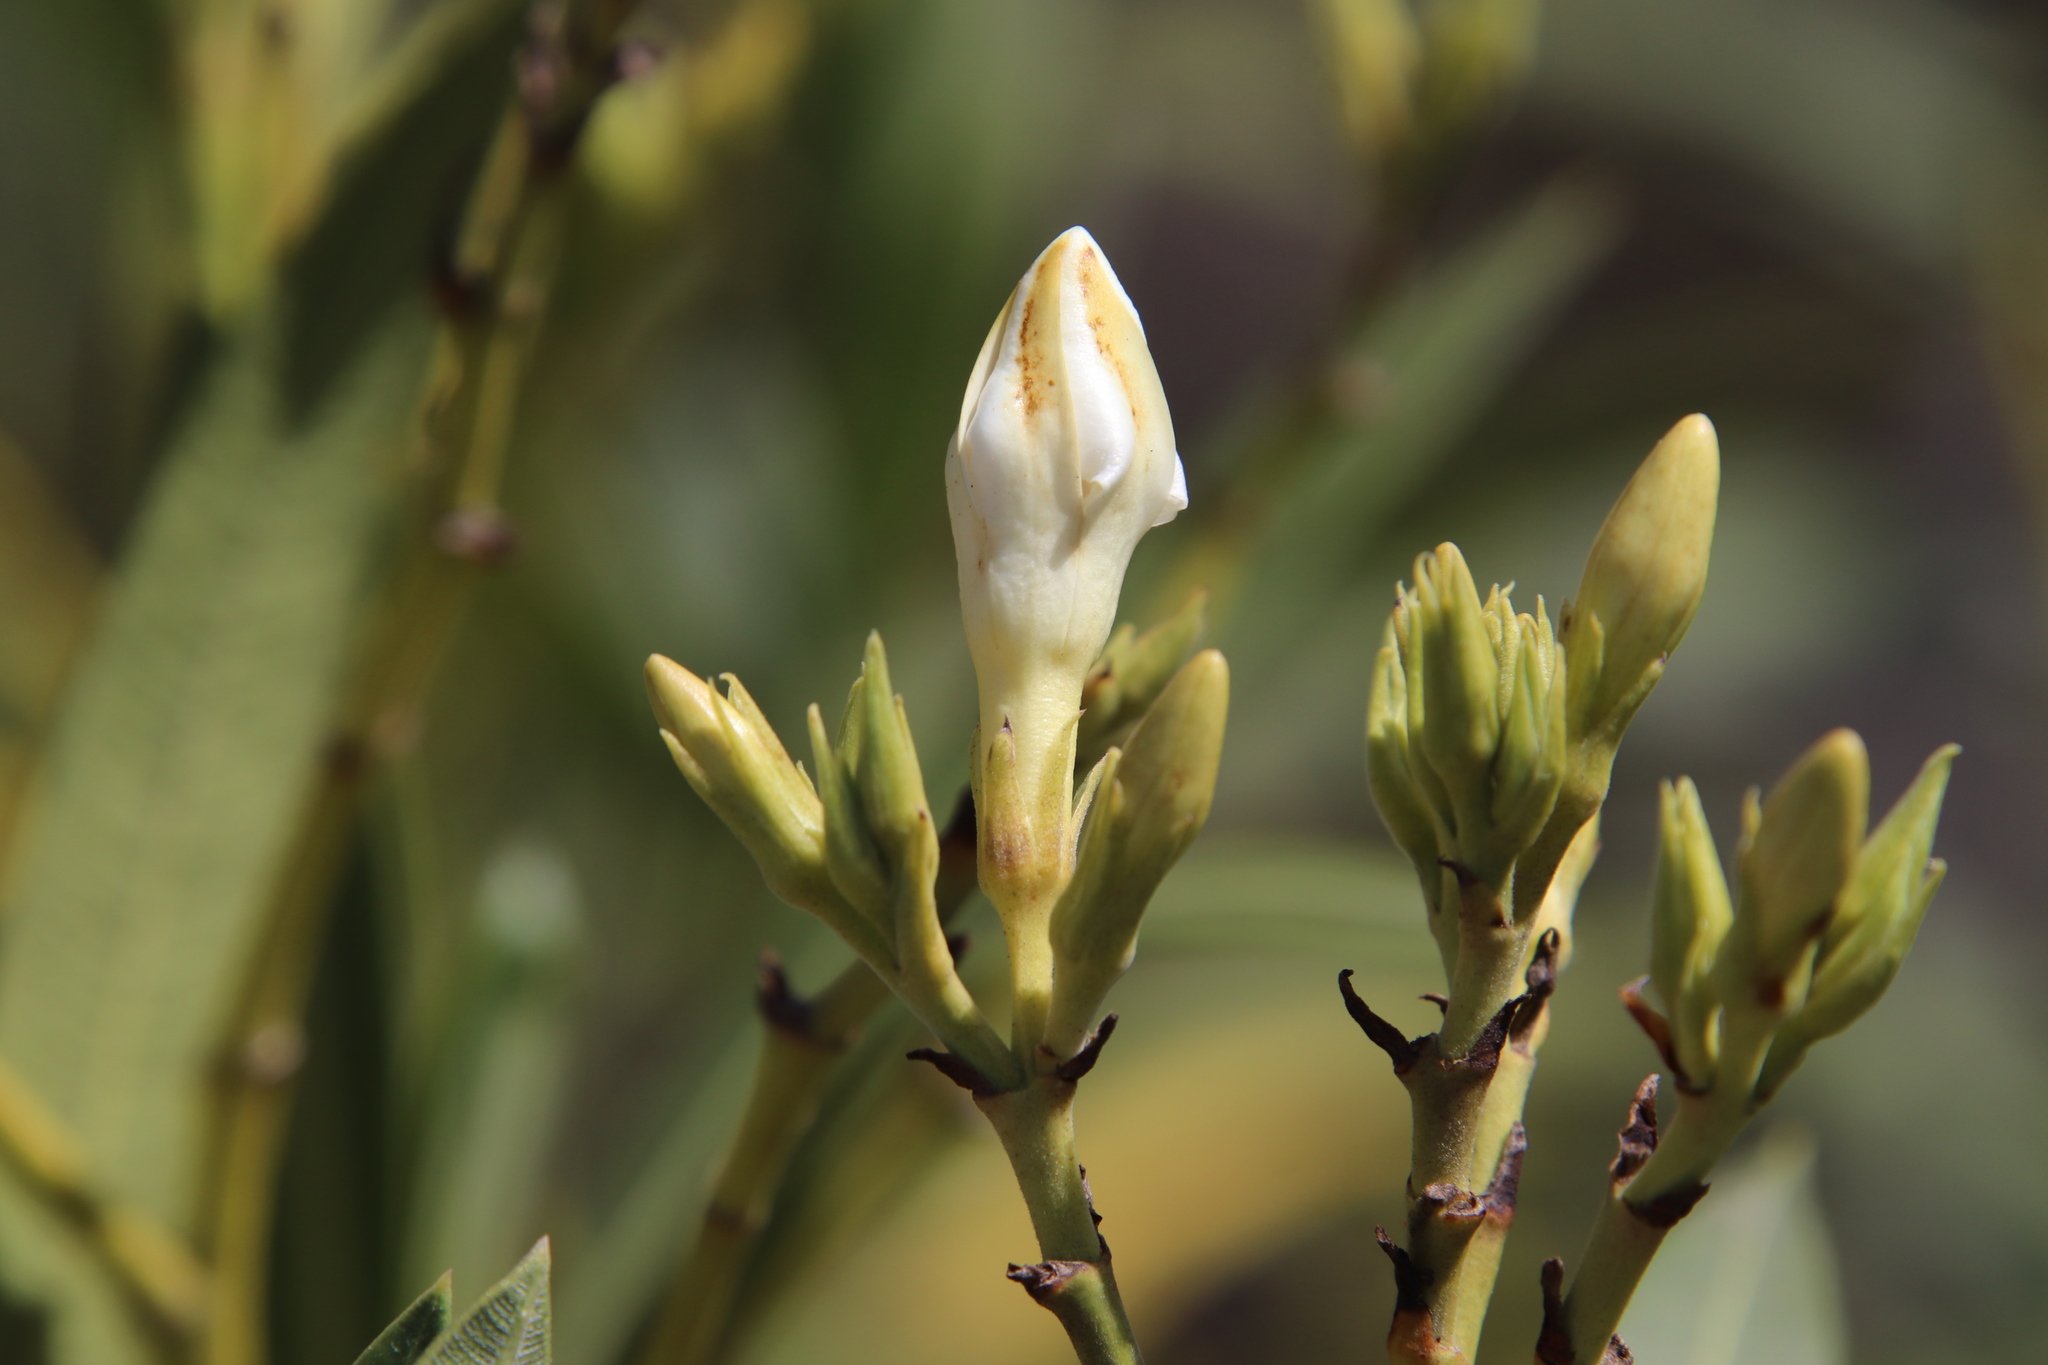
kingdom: Plantae
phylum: Tracheophyta
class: Magnoliopsida
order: Gentianales
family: Apocynaceae
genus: Nerium
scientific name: Nerium oleander
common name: Oleander
